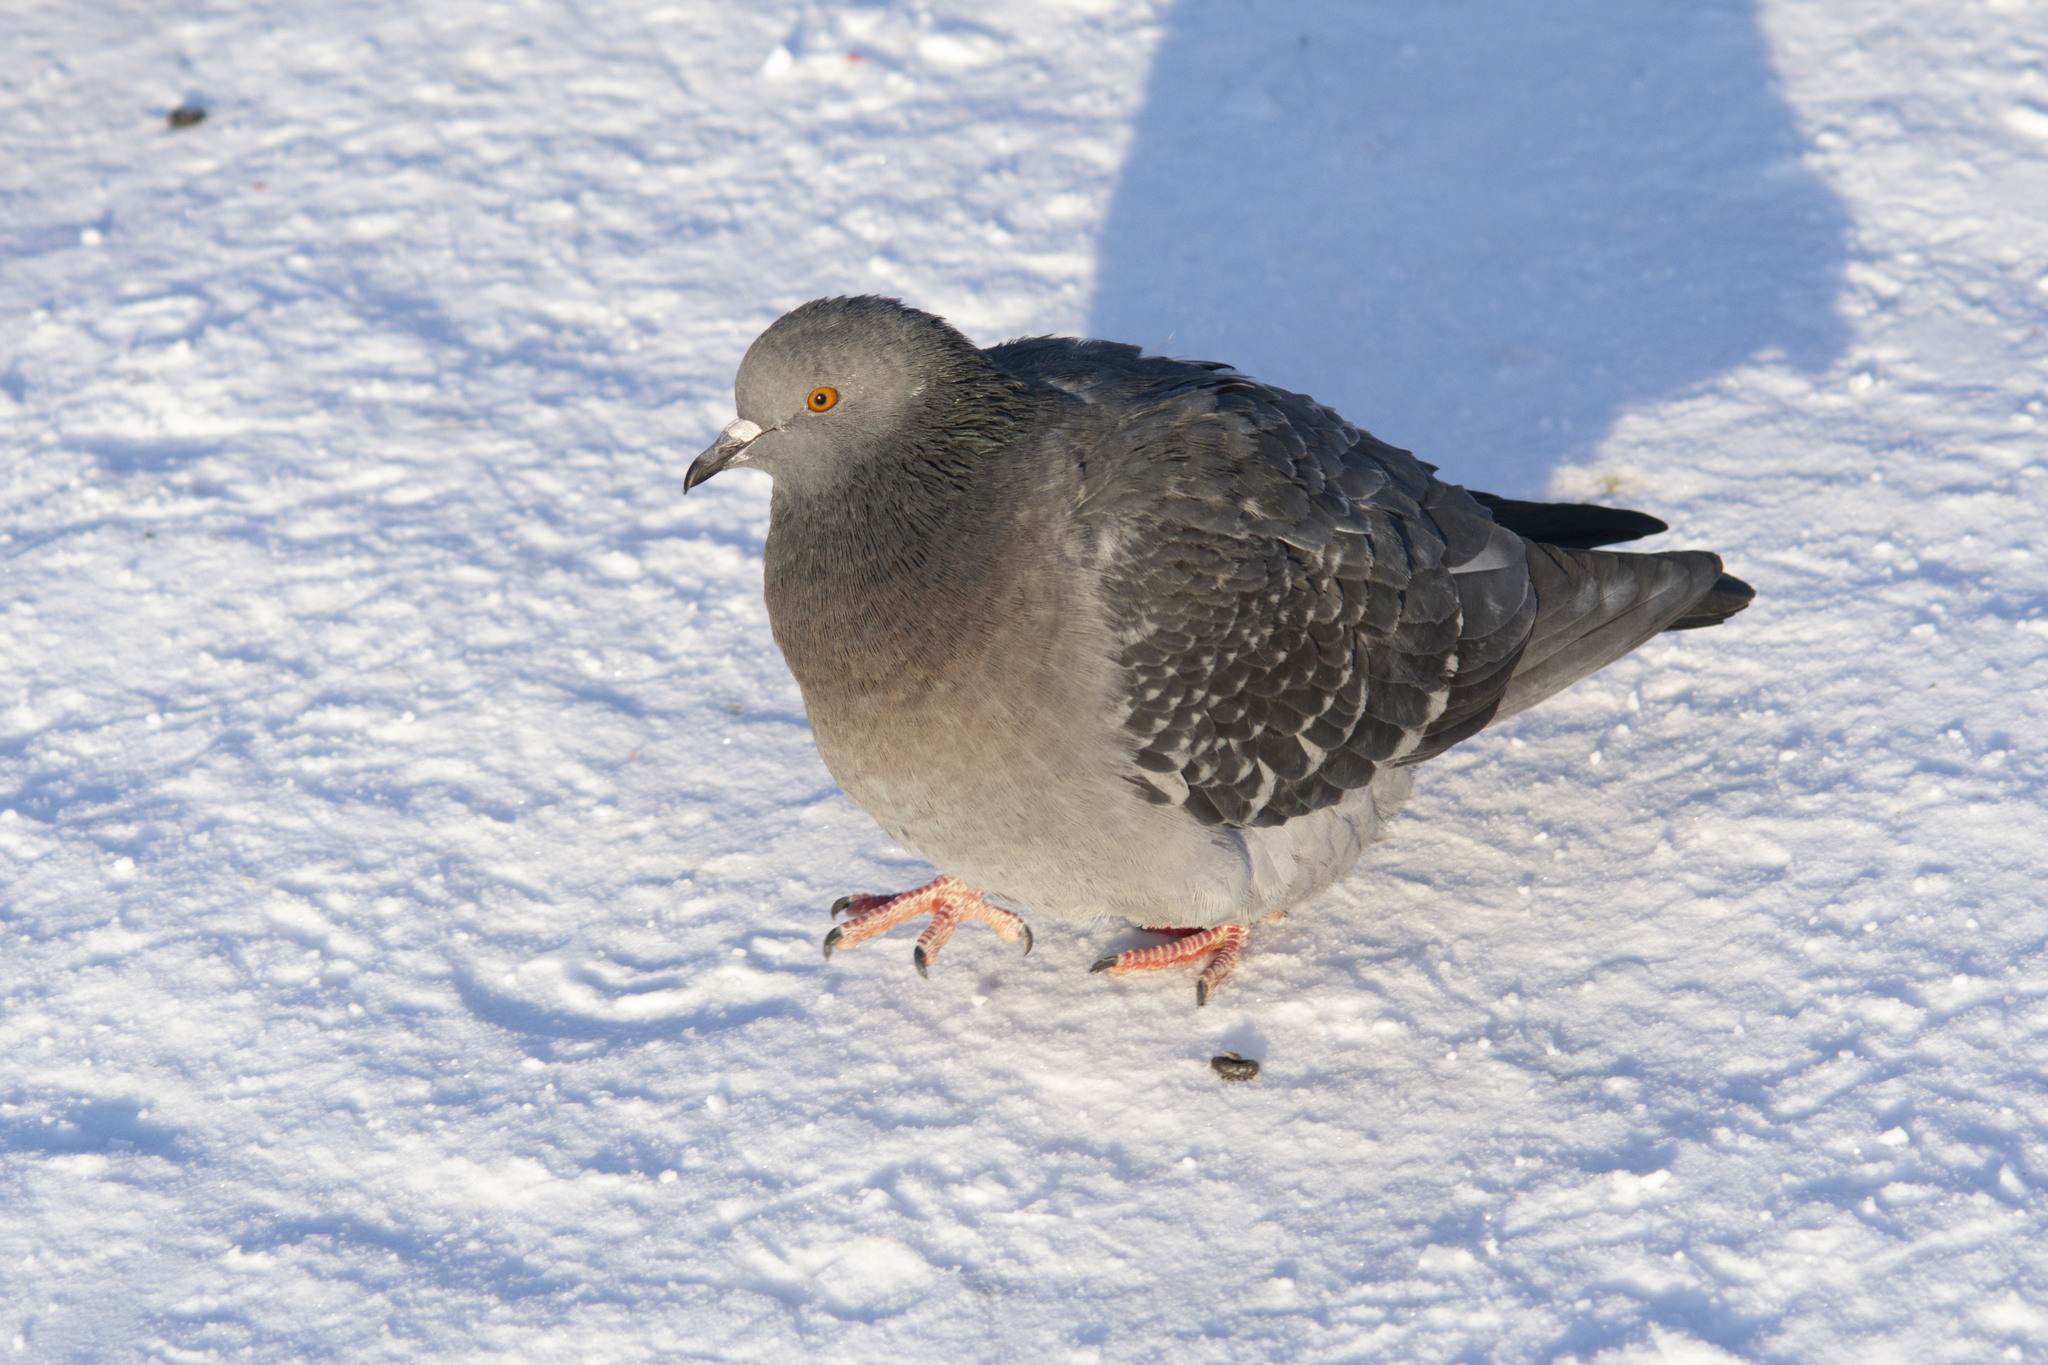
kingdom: Animalia
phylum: Chordata
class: Aves
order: Columbiformes
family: Columbidae
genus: Columba
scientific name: Columba livia
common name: Rock pigeon
